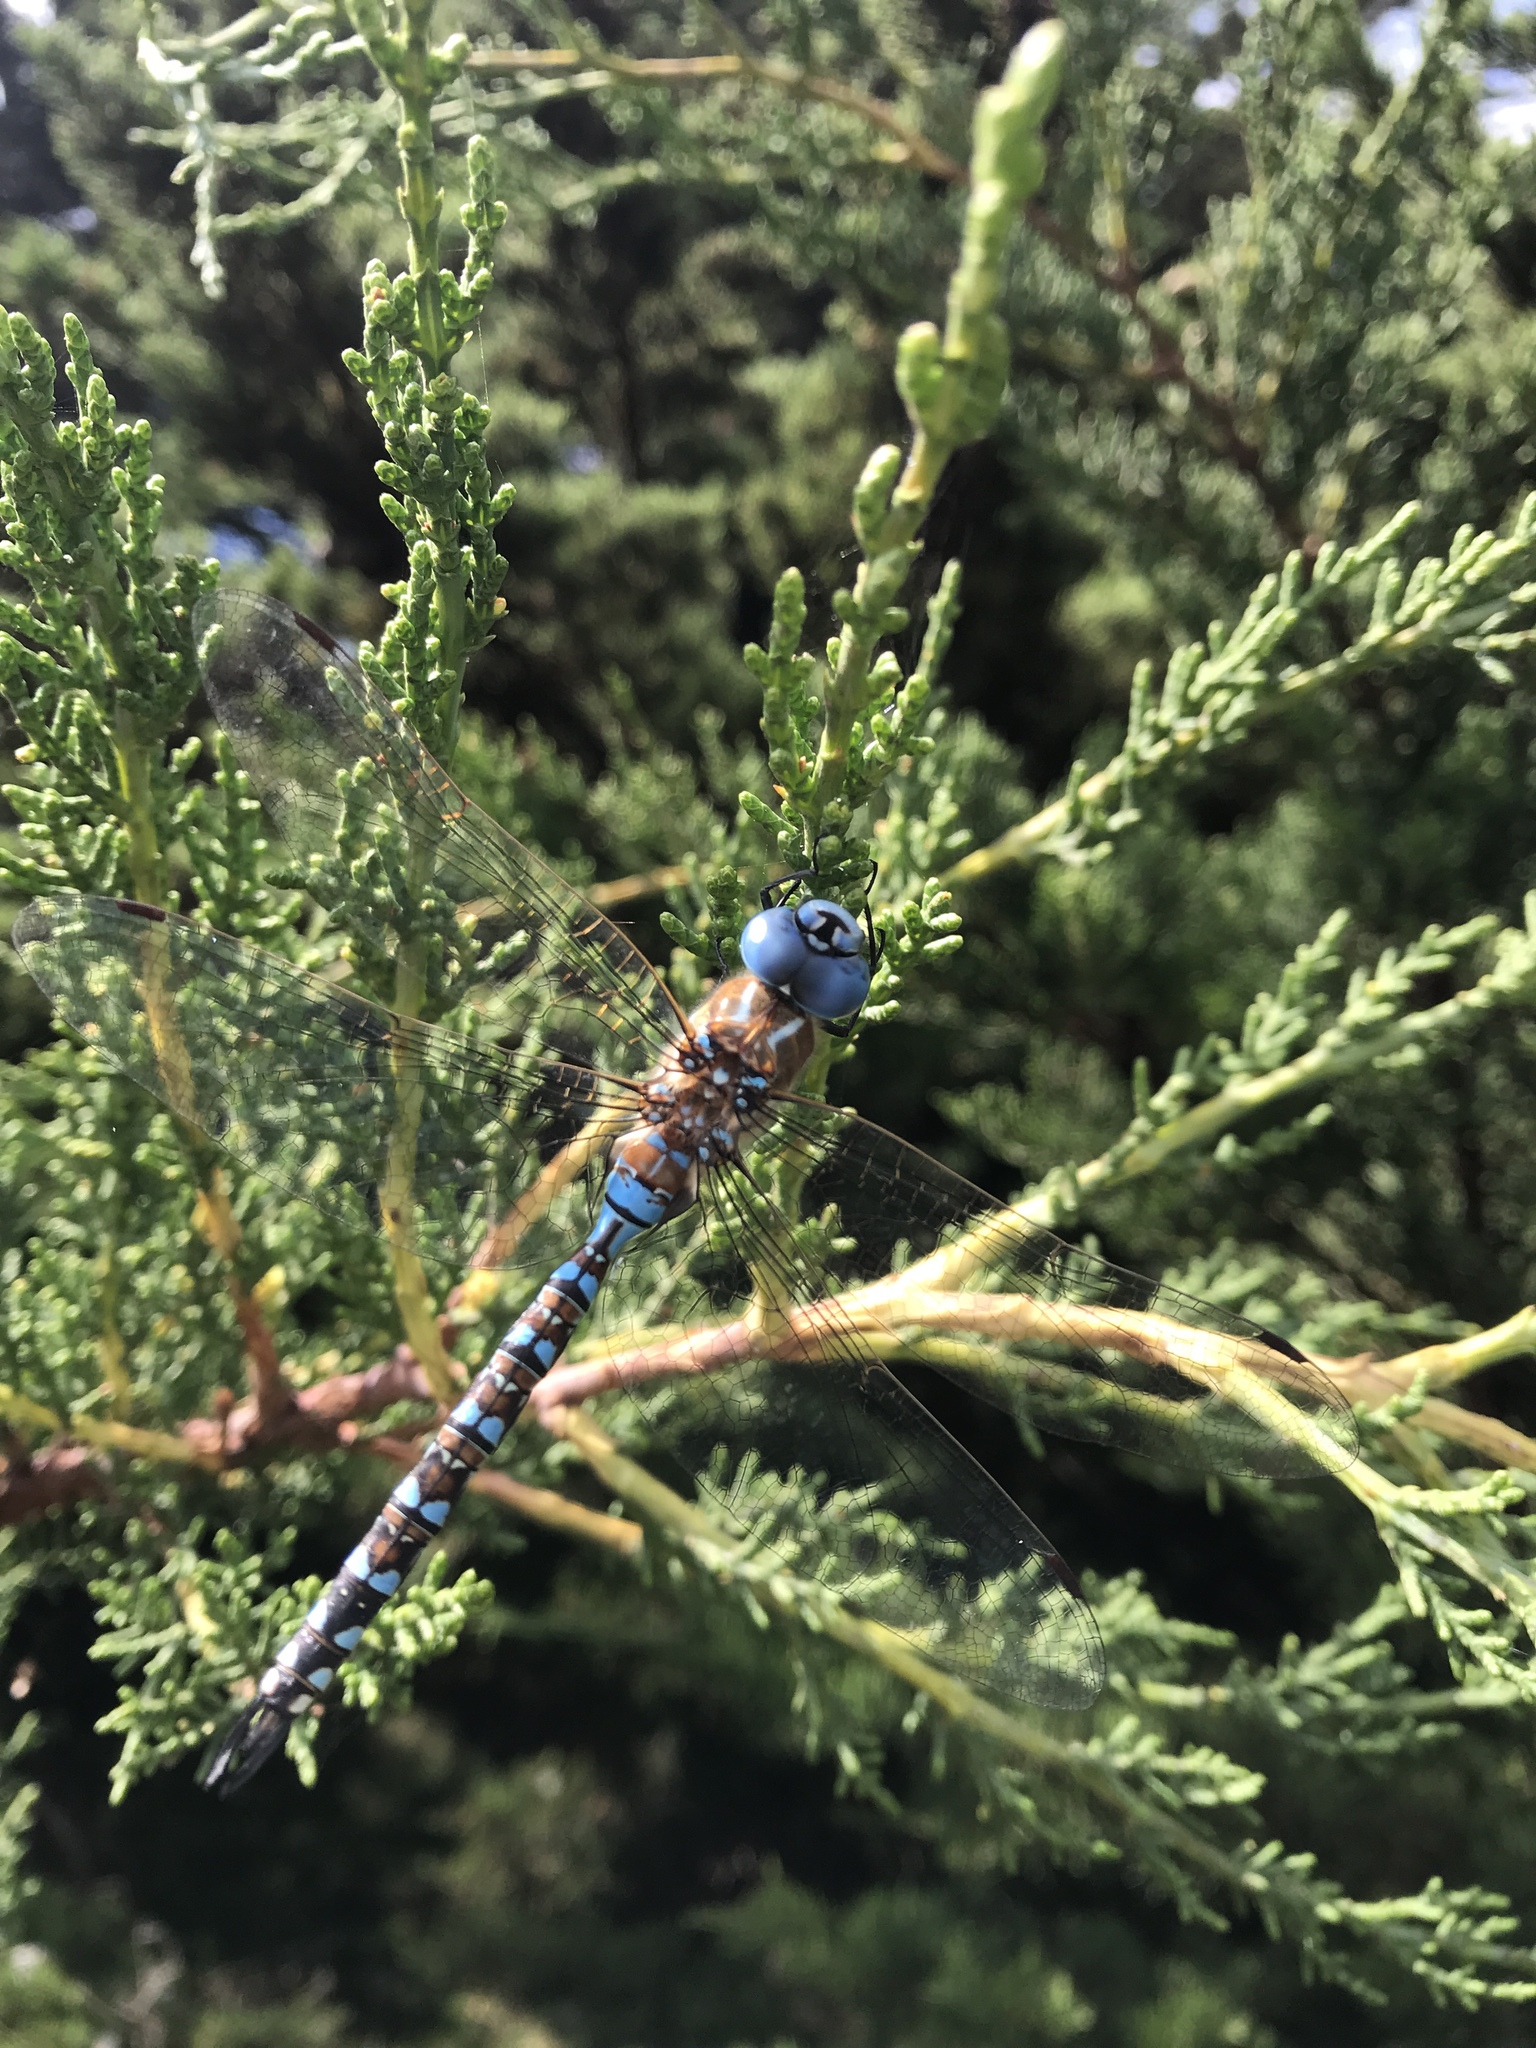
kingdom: Animalia
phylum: Arthropoda
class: Insecta
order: Odonata
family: Aeshnidae
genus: Rhionaeschna
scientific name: Rhionaeschna multicolor
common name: Blue-eyed darner
